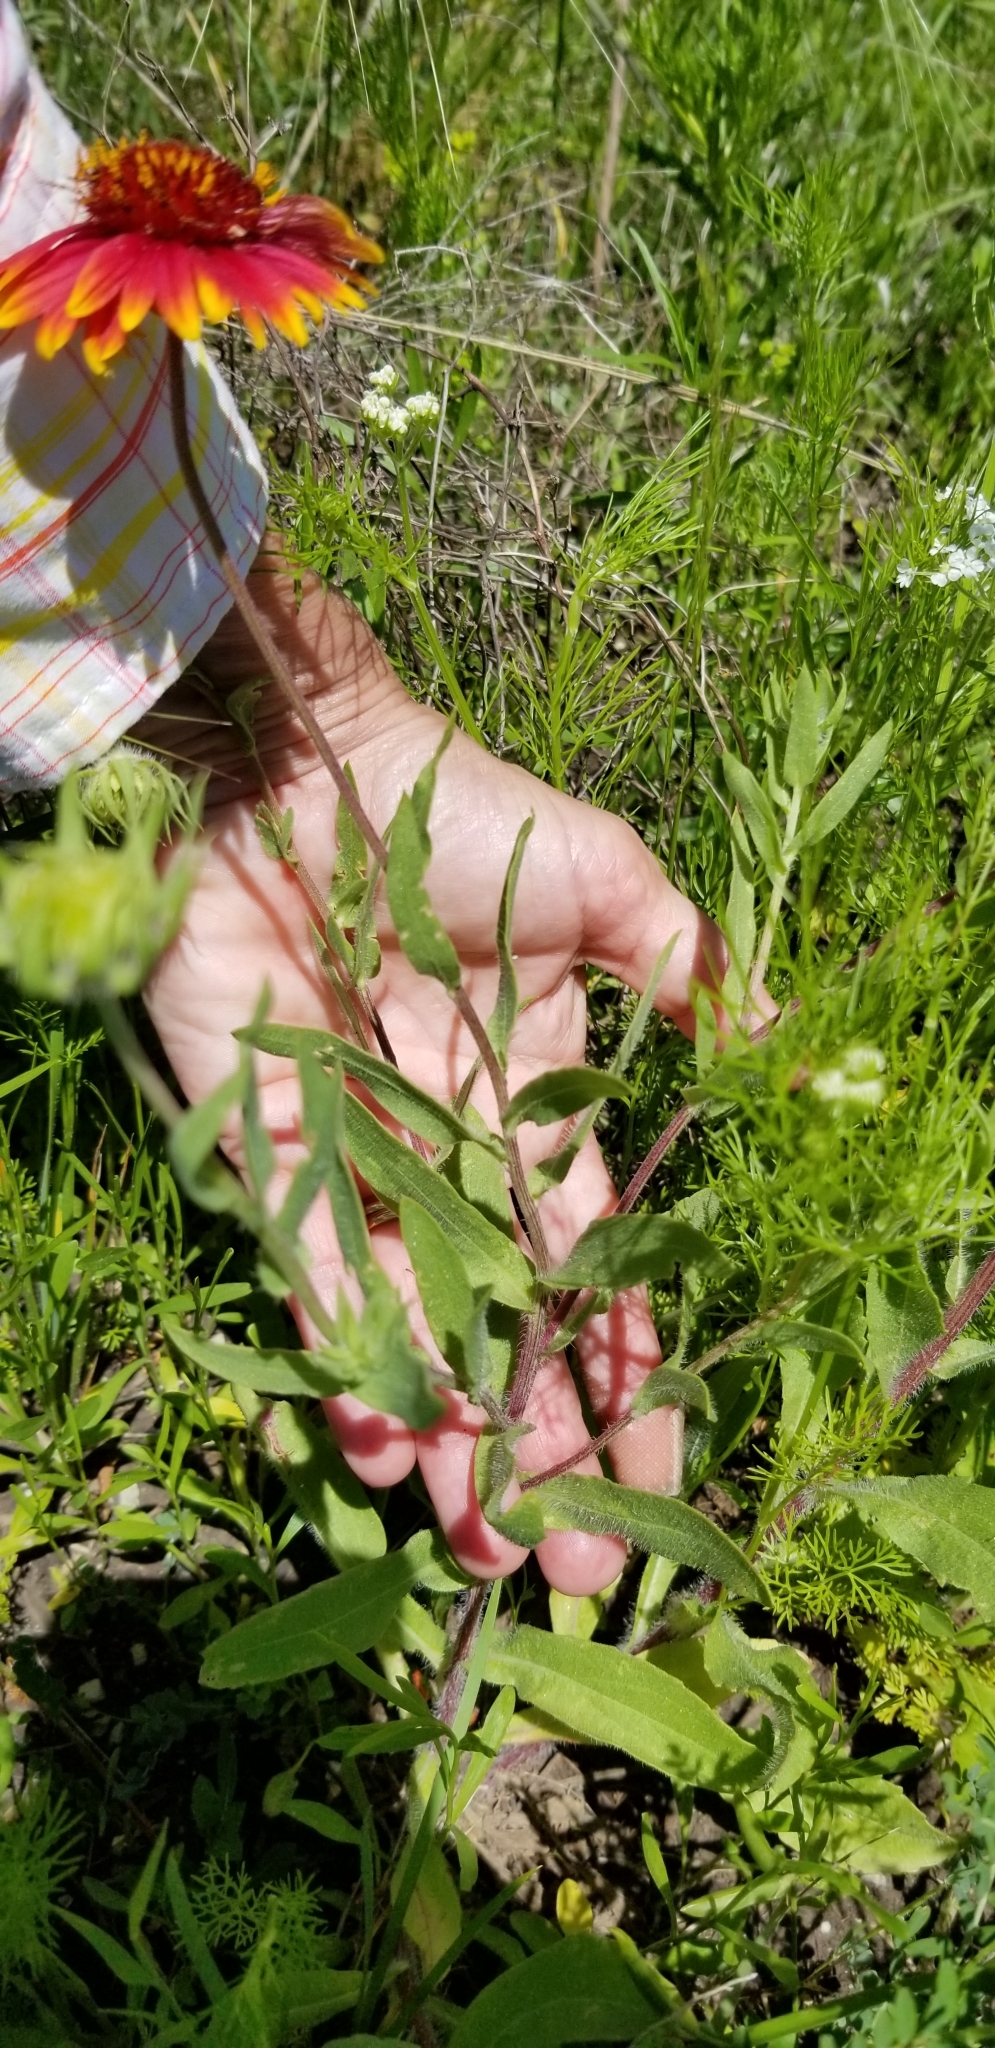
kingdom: Plantae
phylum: Tracheophyta
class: Magnoliopsida
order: Asterales
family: Asteraceae
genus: Gaillardia
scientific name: Gaillardia pulchella
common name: Firewheel
